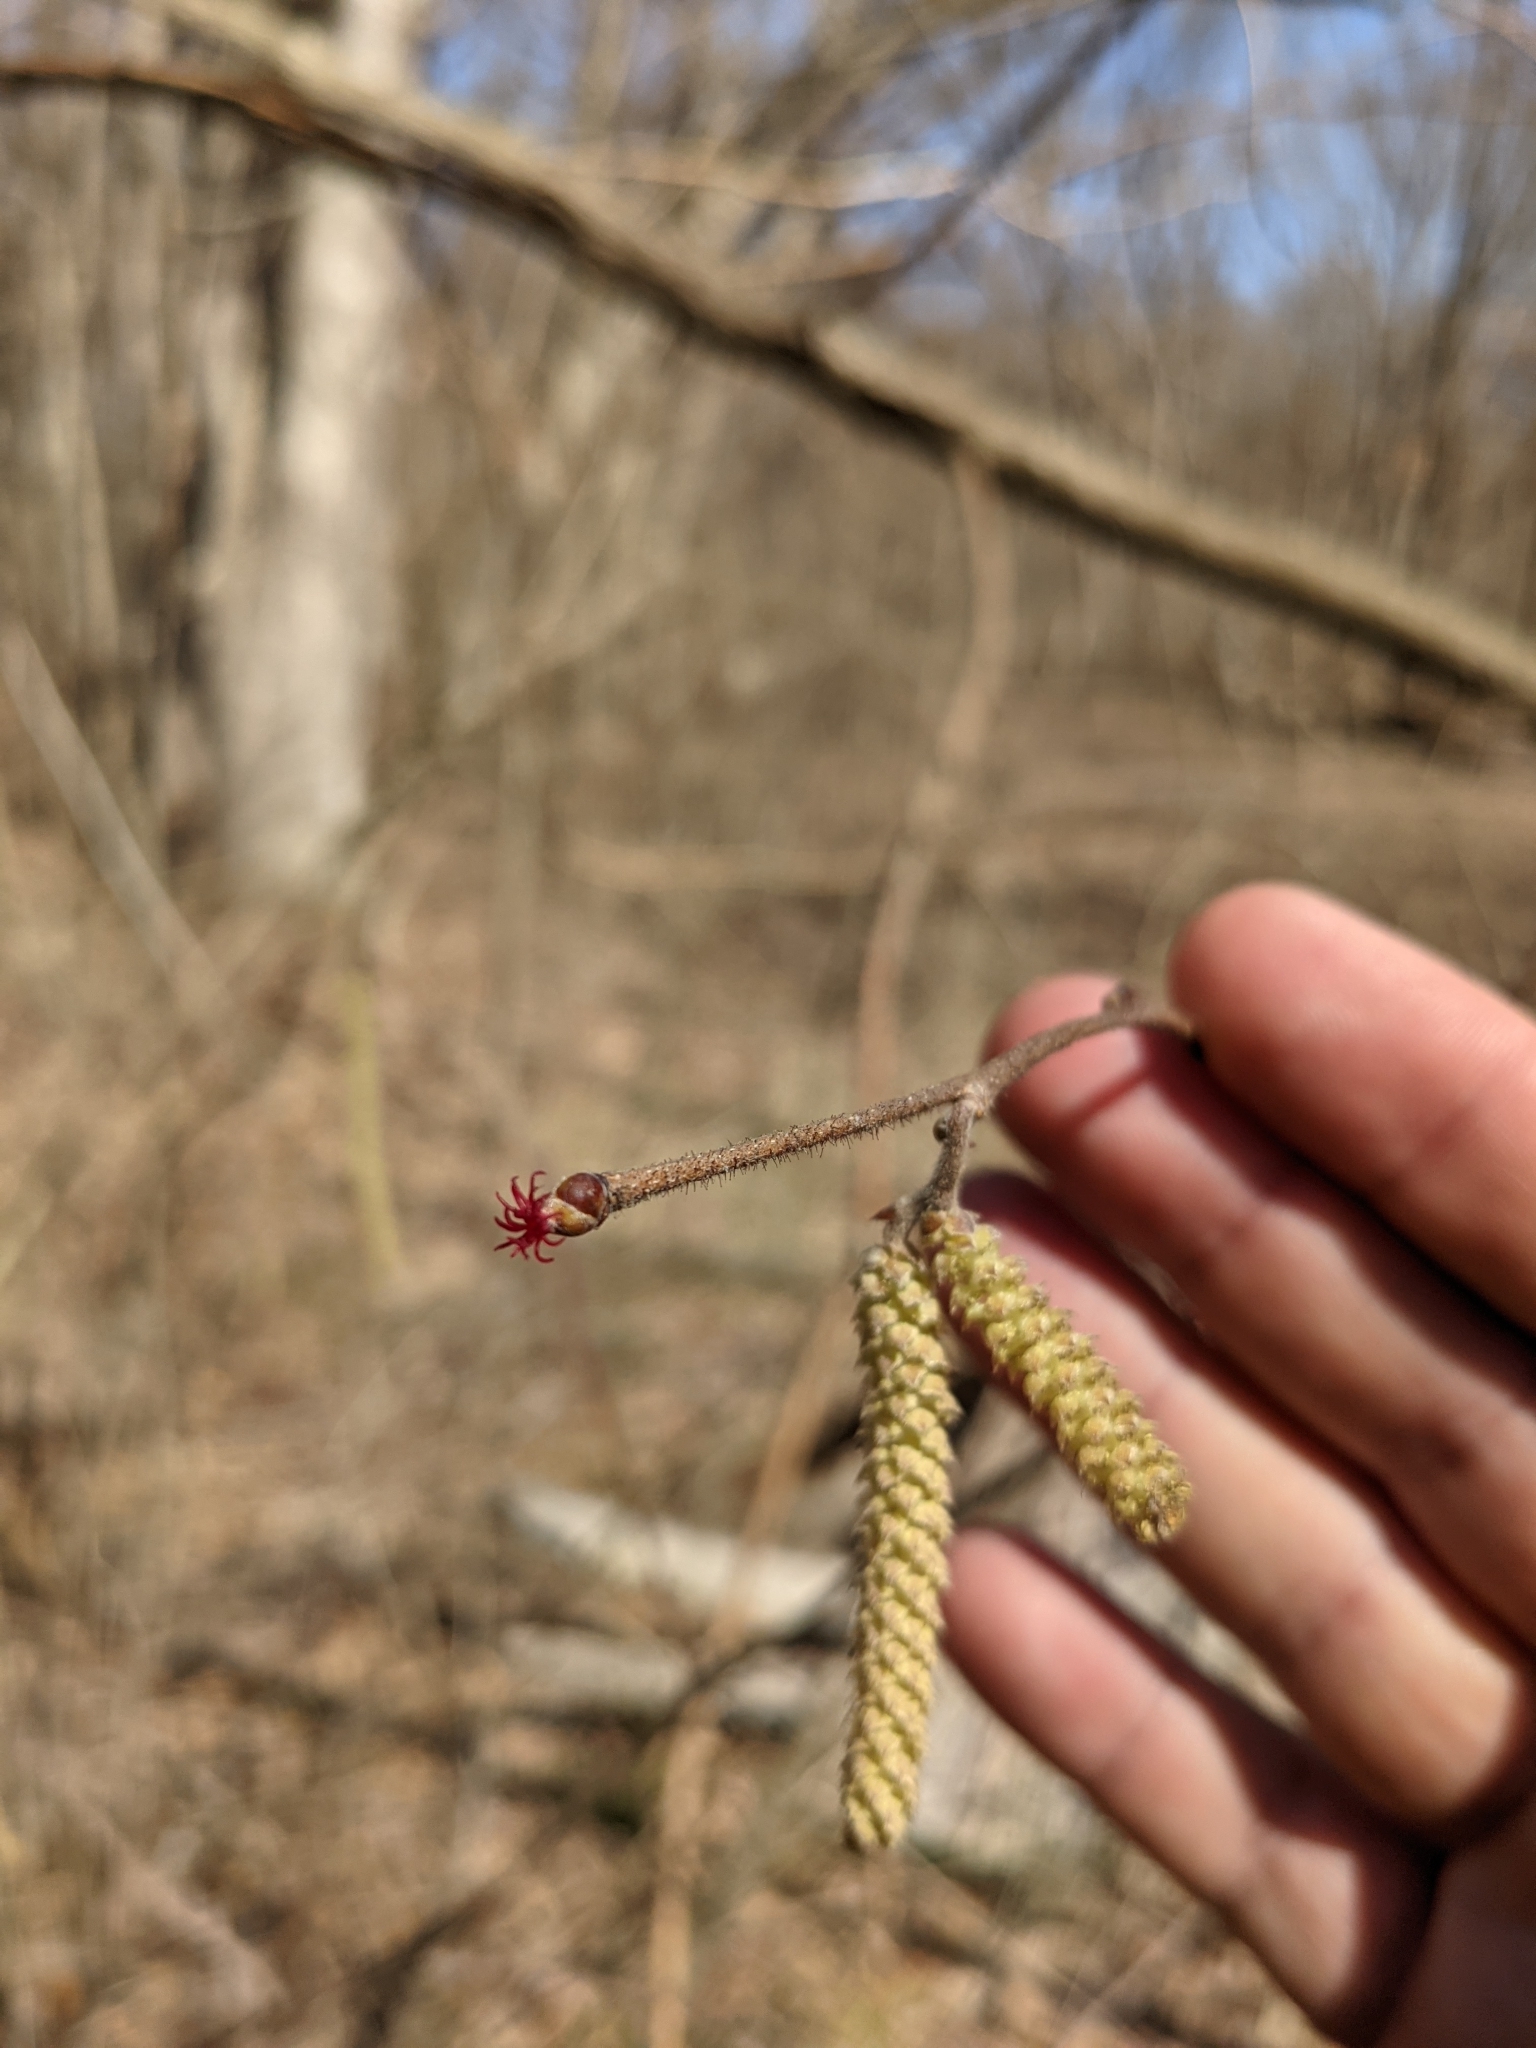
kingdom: Plantae
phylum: Tracheophyta
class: Magnoliopsida
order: Fagales
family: Betulaceae
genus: Corylus
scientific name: Corylus americana
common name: American hazel
